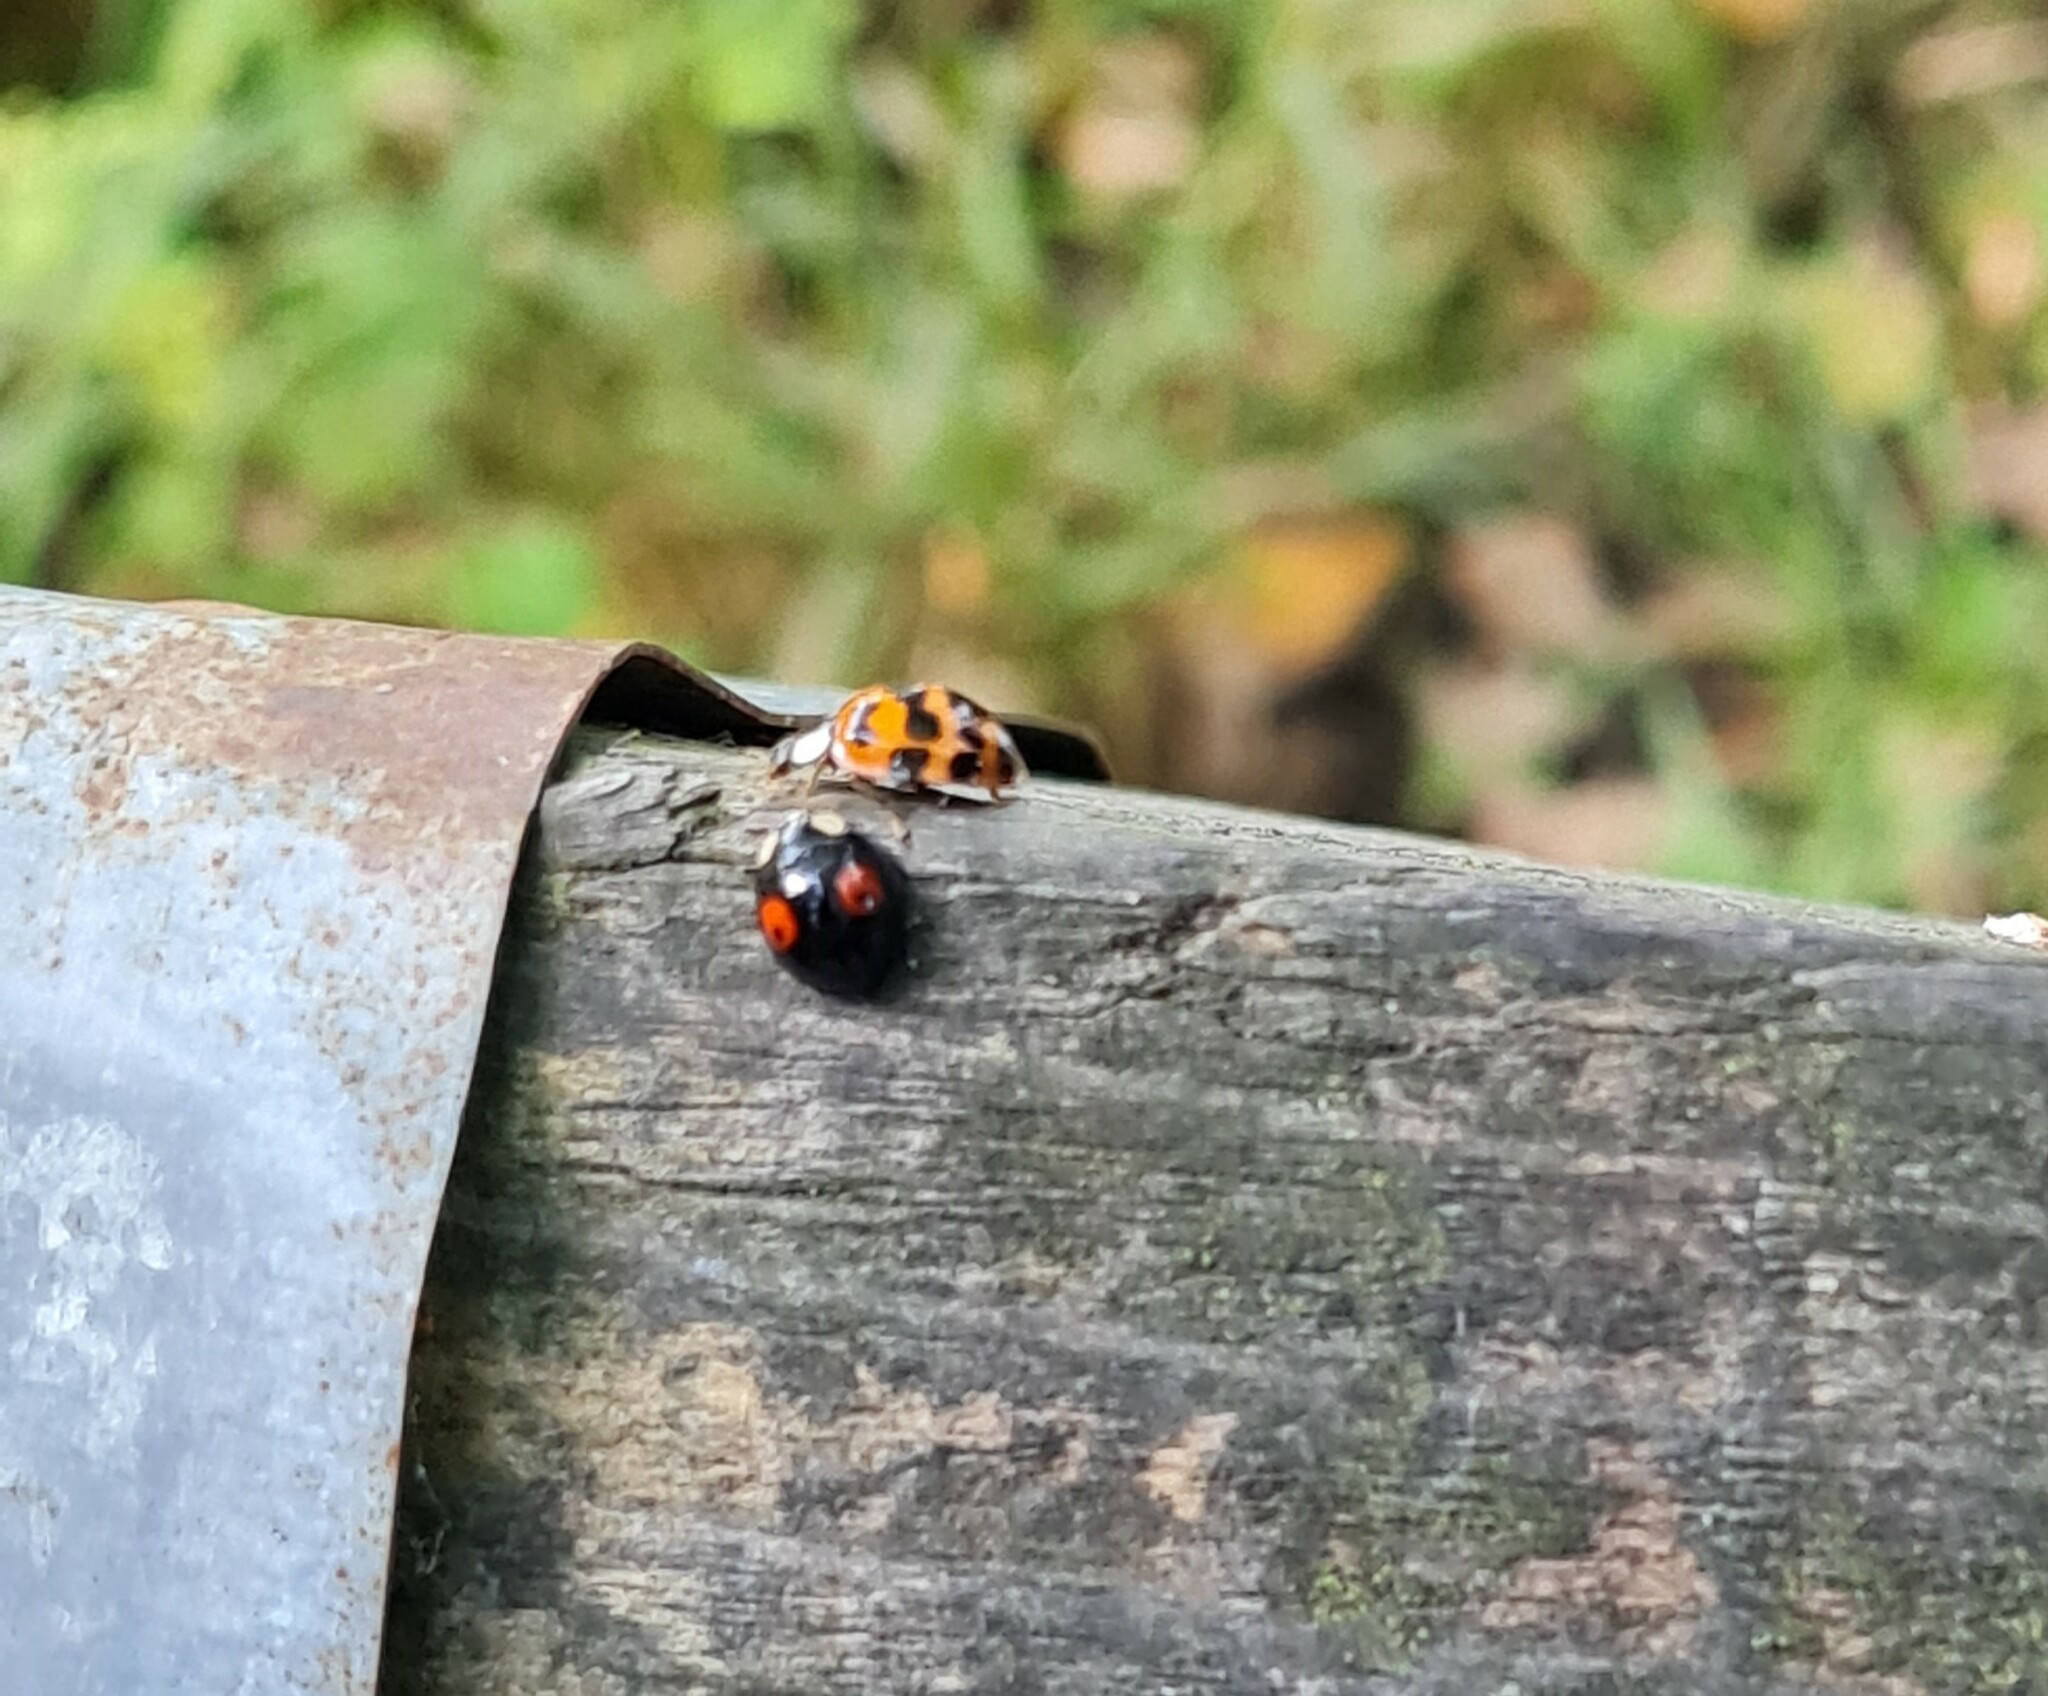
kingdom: Animalia
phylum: Arthropoda
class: Insecta
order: Coleoptera
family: Coccinellidae
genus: Harmonia
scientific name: Harmonia axyridis
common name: Harlequin ladybird
